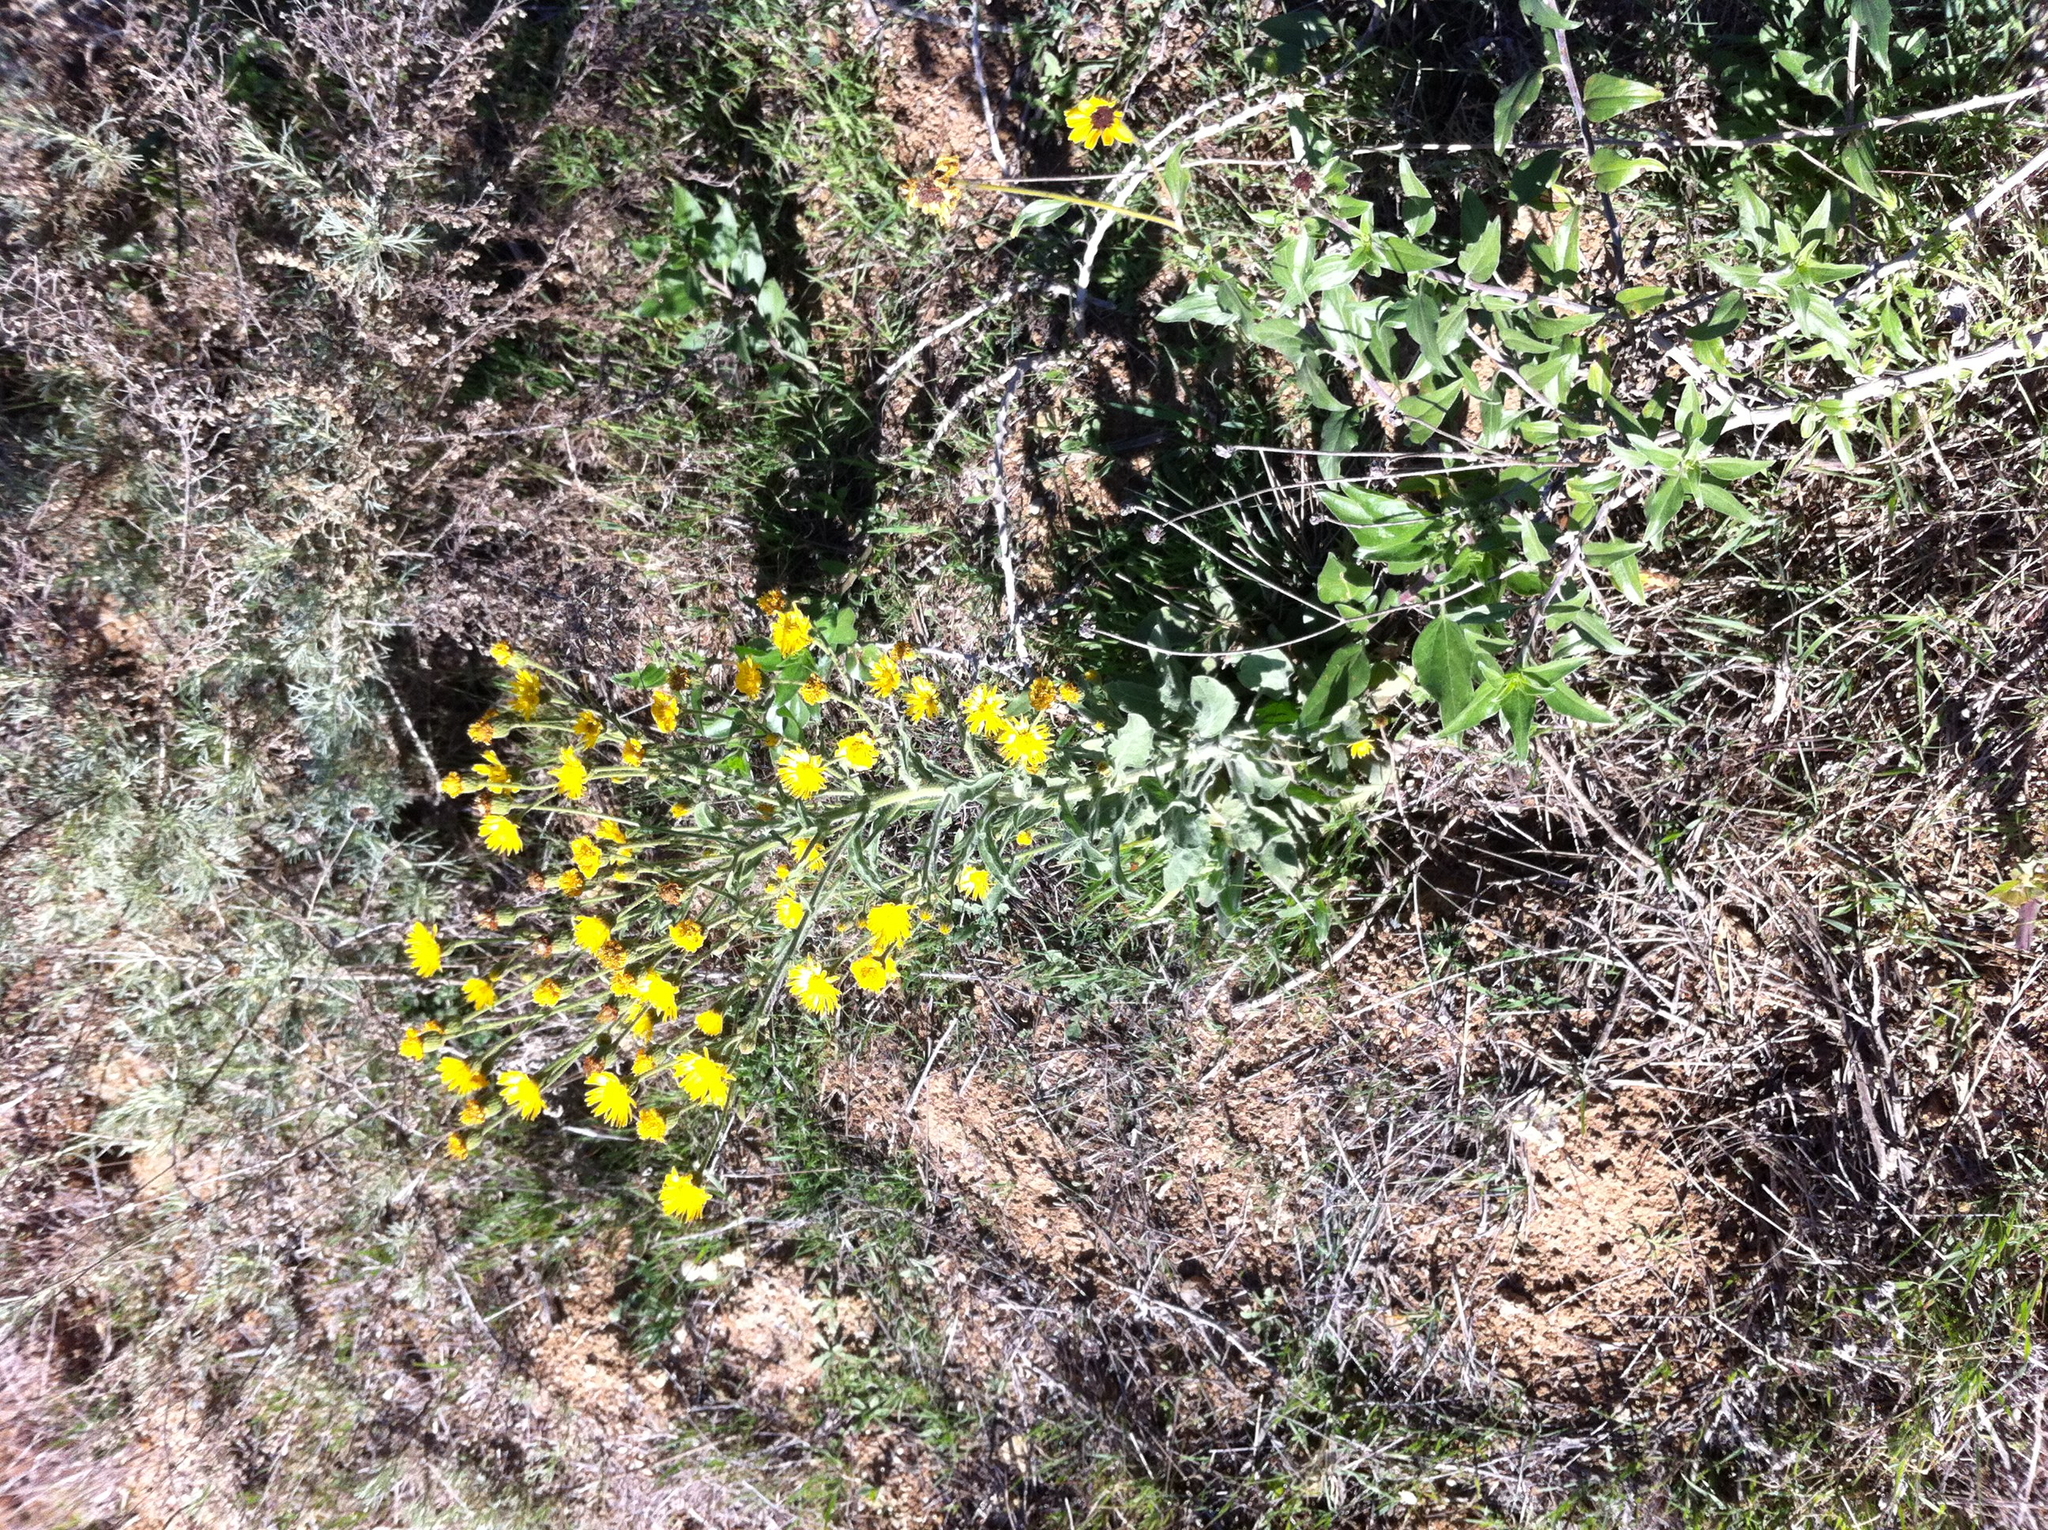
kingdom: Plantae
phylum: Tracheophyta
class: Magnoliopsida
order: Asterales
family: Asteraceae
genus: Heterotheca
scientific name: Heterotheca grandiflora
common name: Telegraphweed
